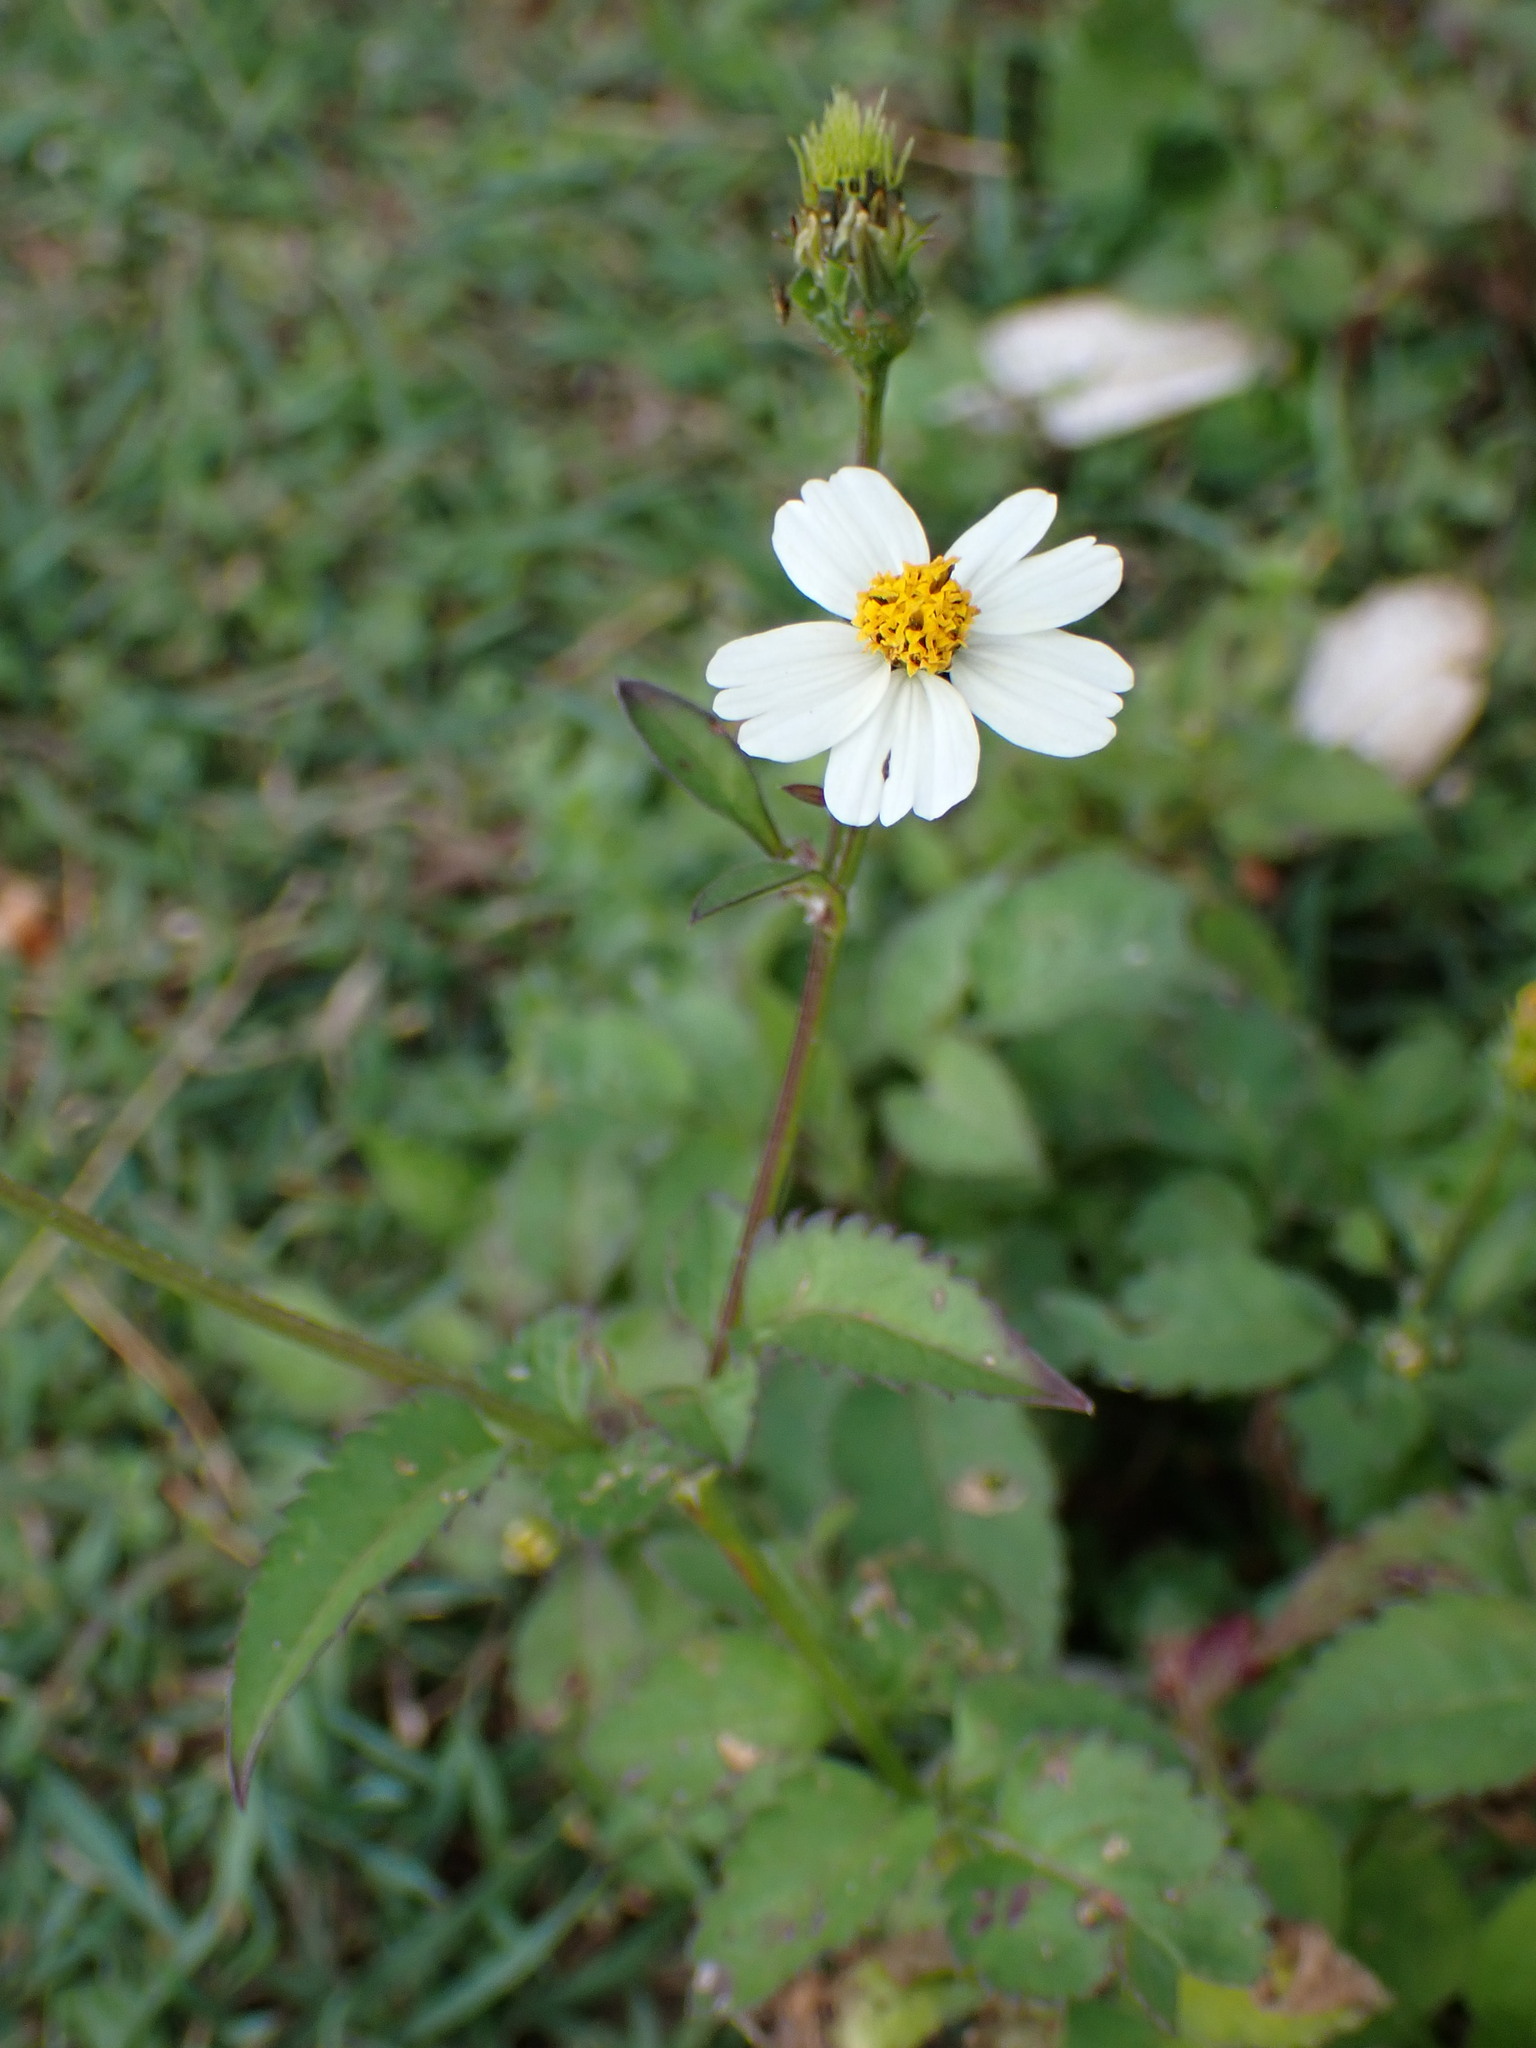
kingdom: Plantae
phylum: Tracheophyta
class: Magnoliopsida
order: Asterales
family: Asteraceae
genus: Bidens
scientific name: Bidens pilosa
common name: Black-jack
